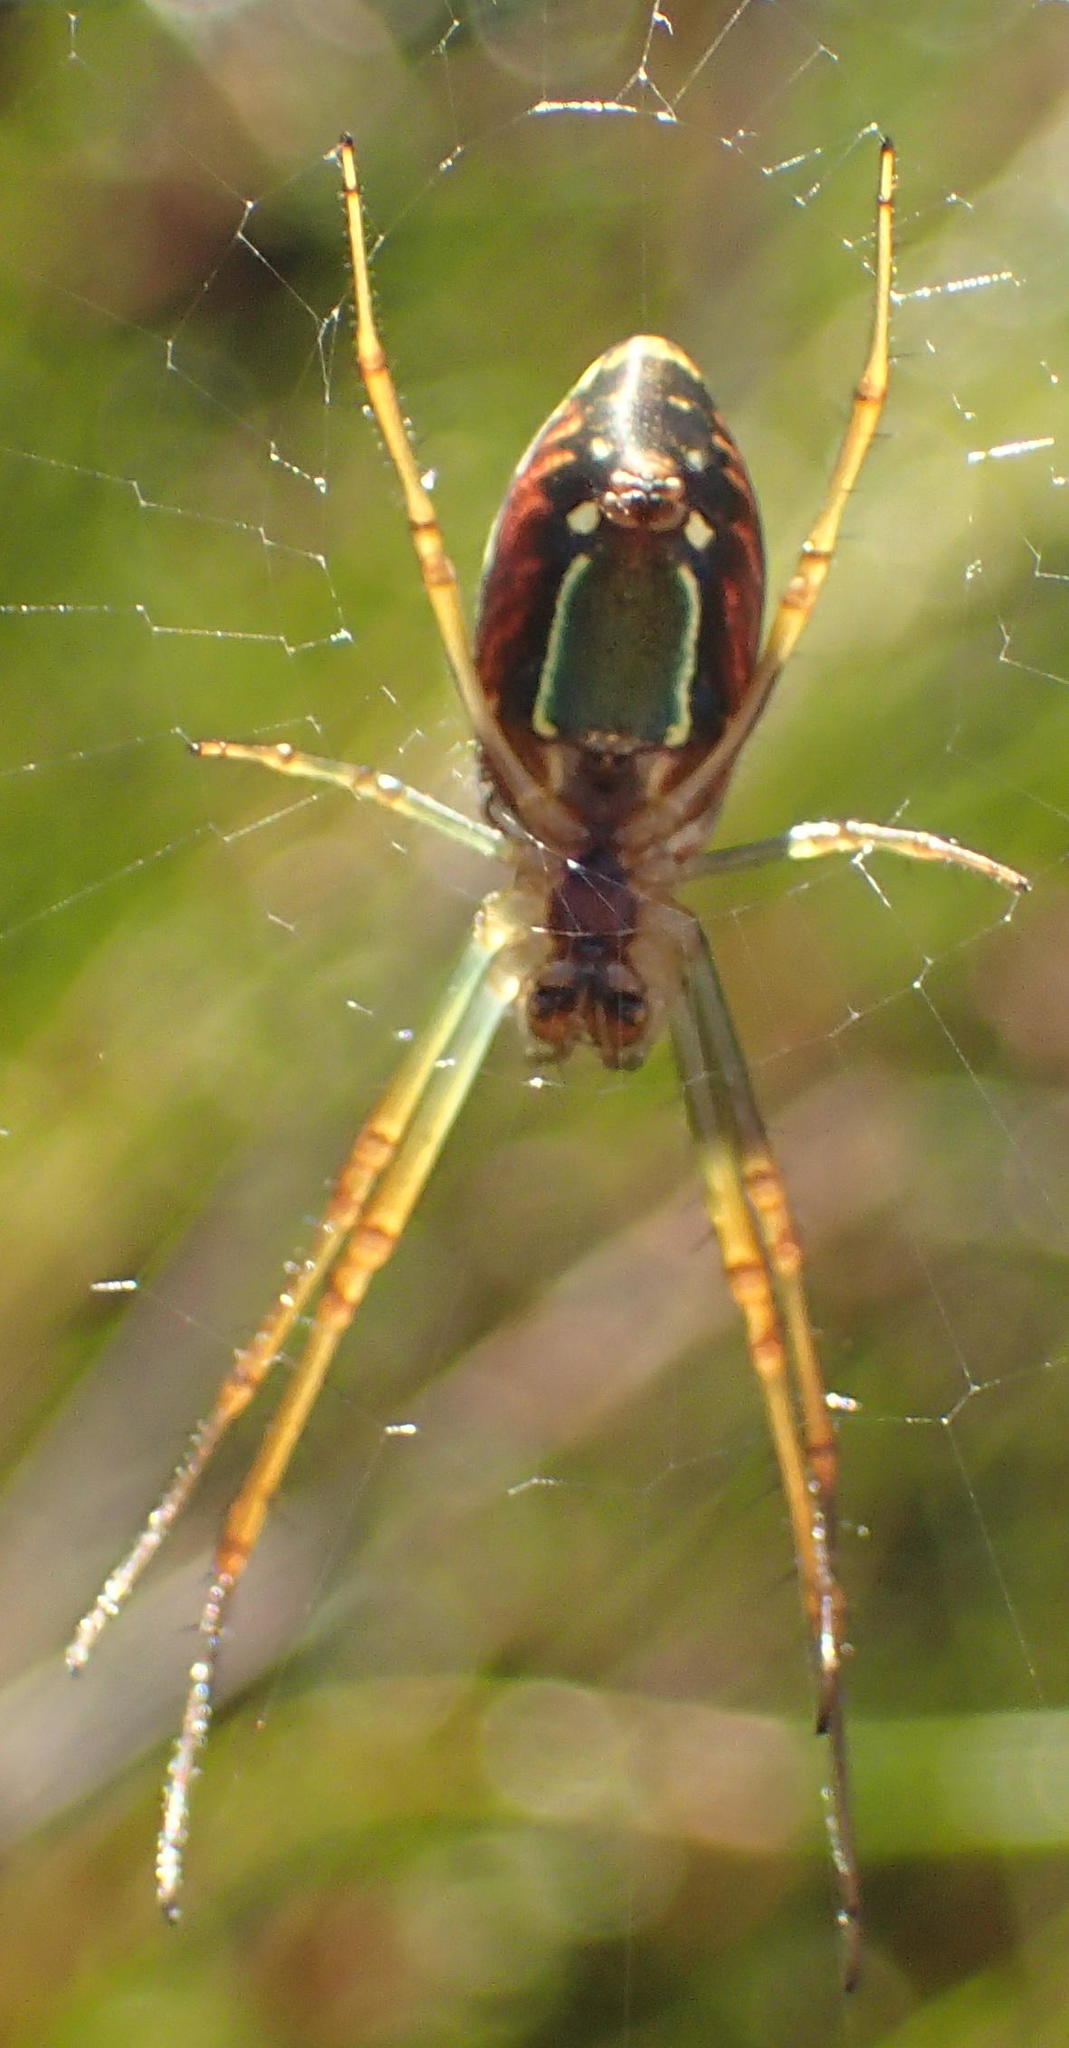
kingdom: Animalia
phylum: Arthropoda
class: Arachnida
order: Araneae
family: Tetragnathidae
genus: Leucauge
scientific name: Leucauge festiva
